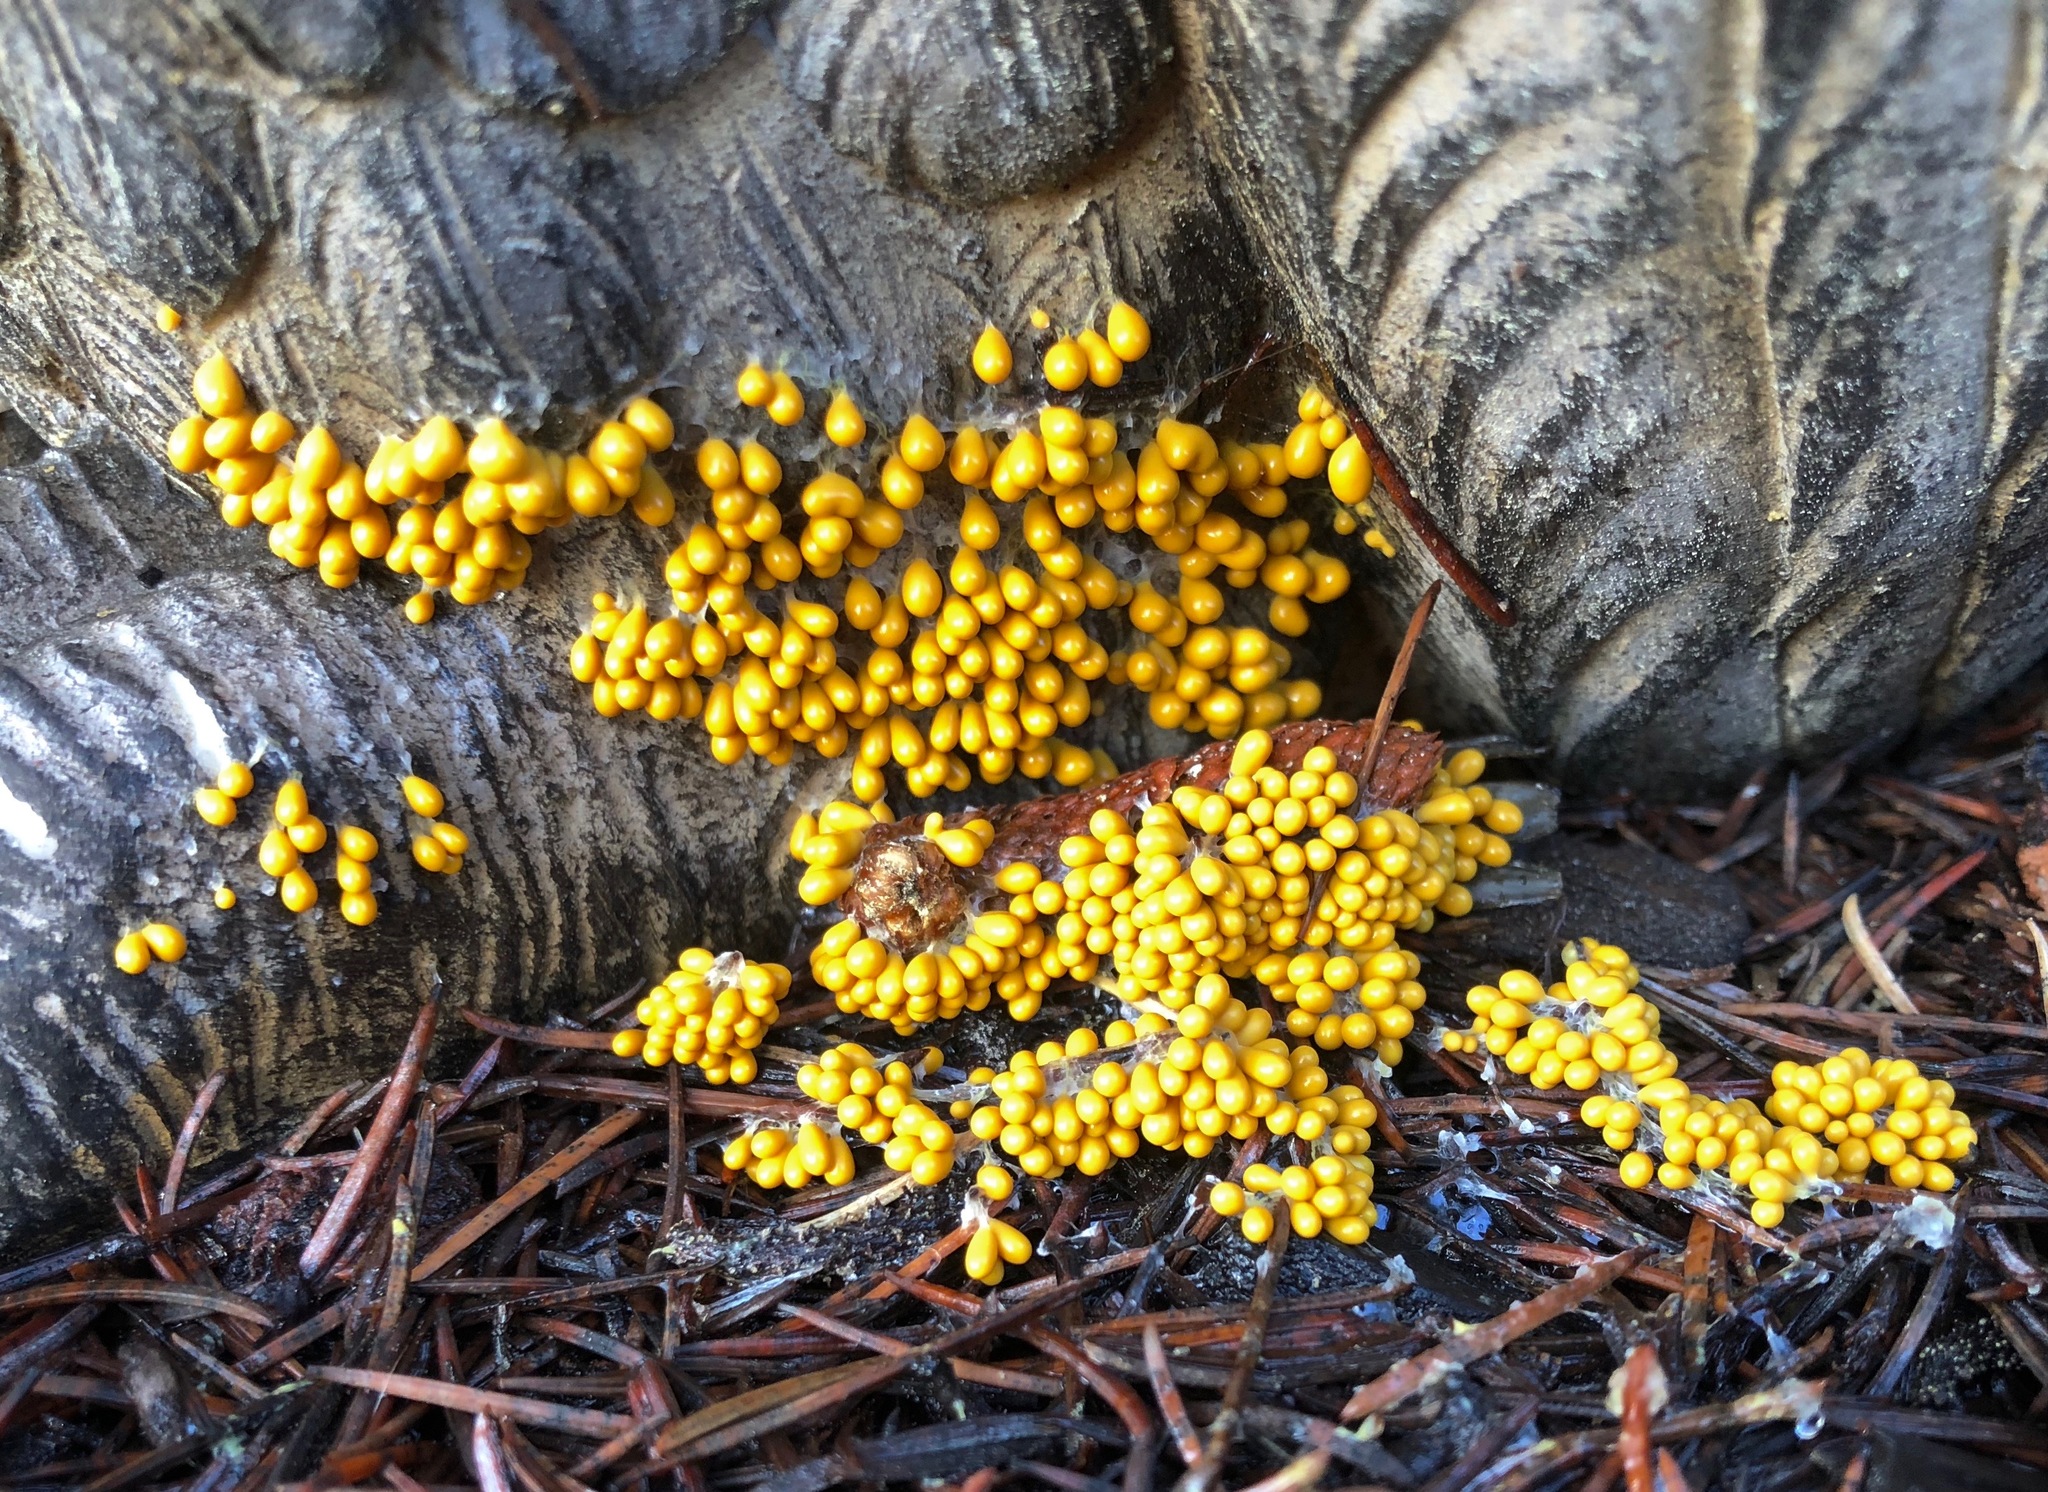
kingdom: Protozoa
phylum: Mycetozoa
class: Myxomycetes
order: Physarales
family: Physaraceae
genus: Leocarpus
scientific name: Leocarpus fragilis
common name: Insect-egg slime
